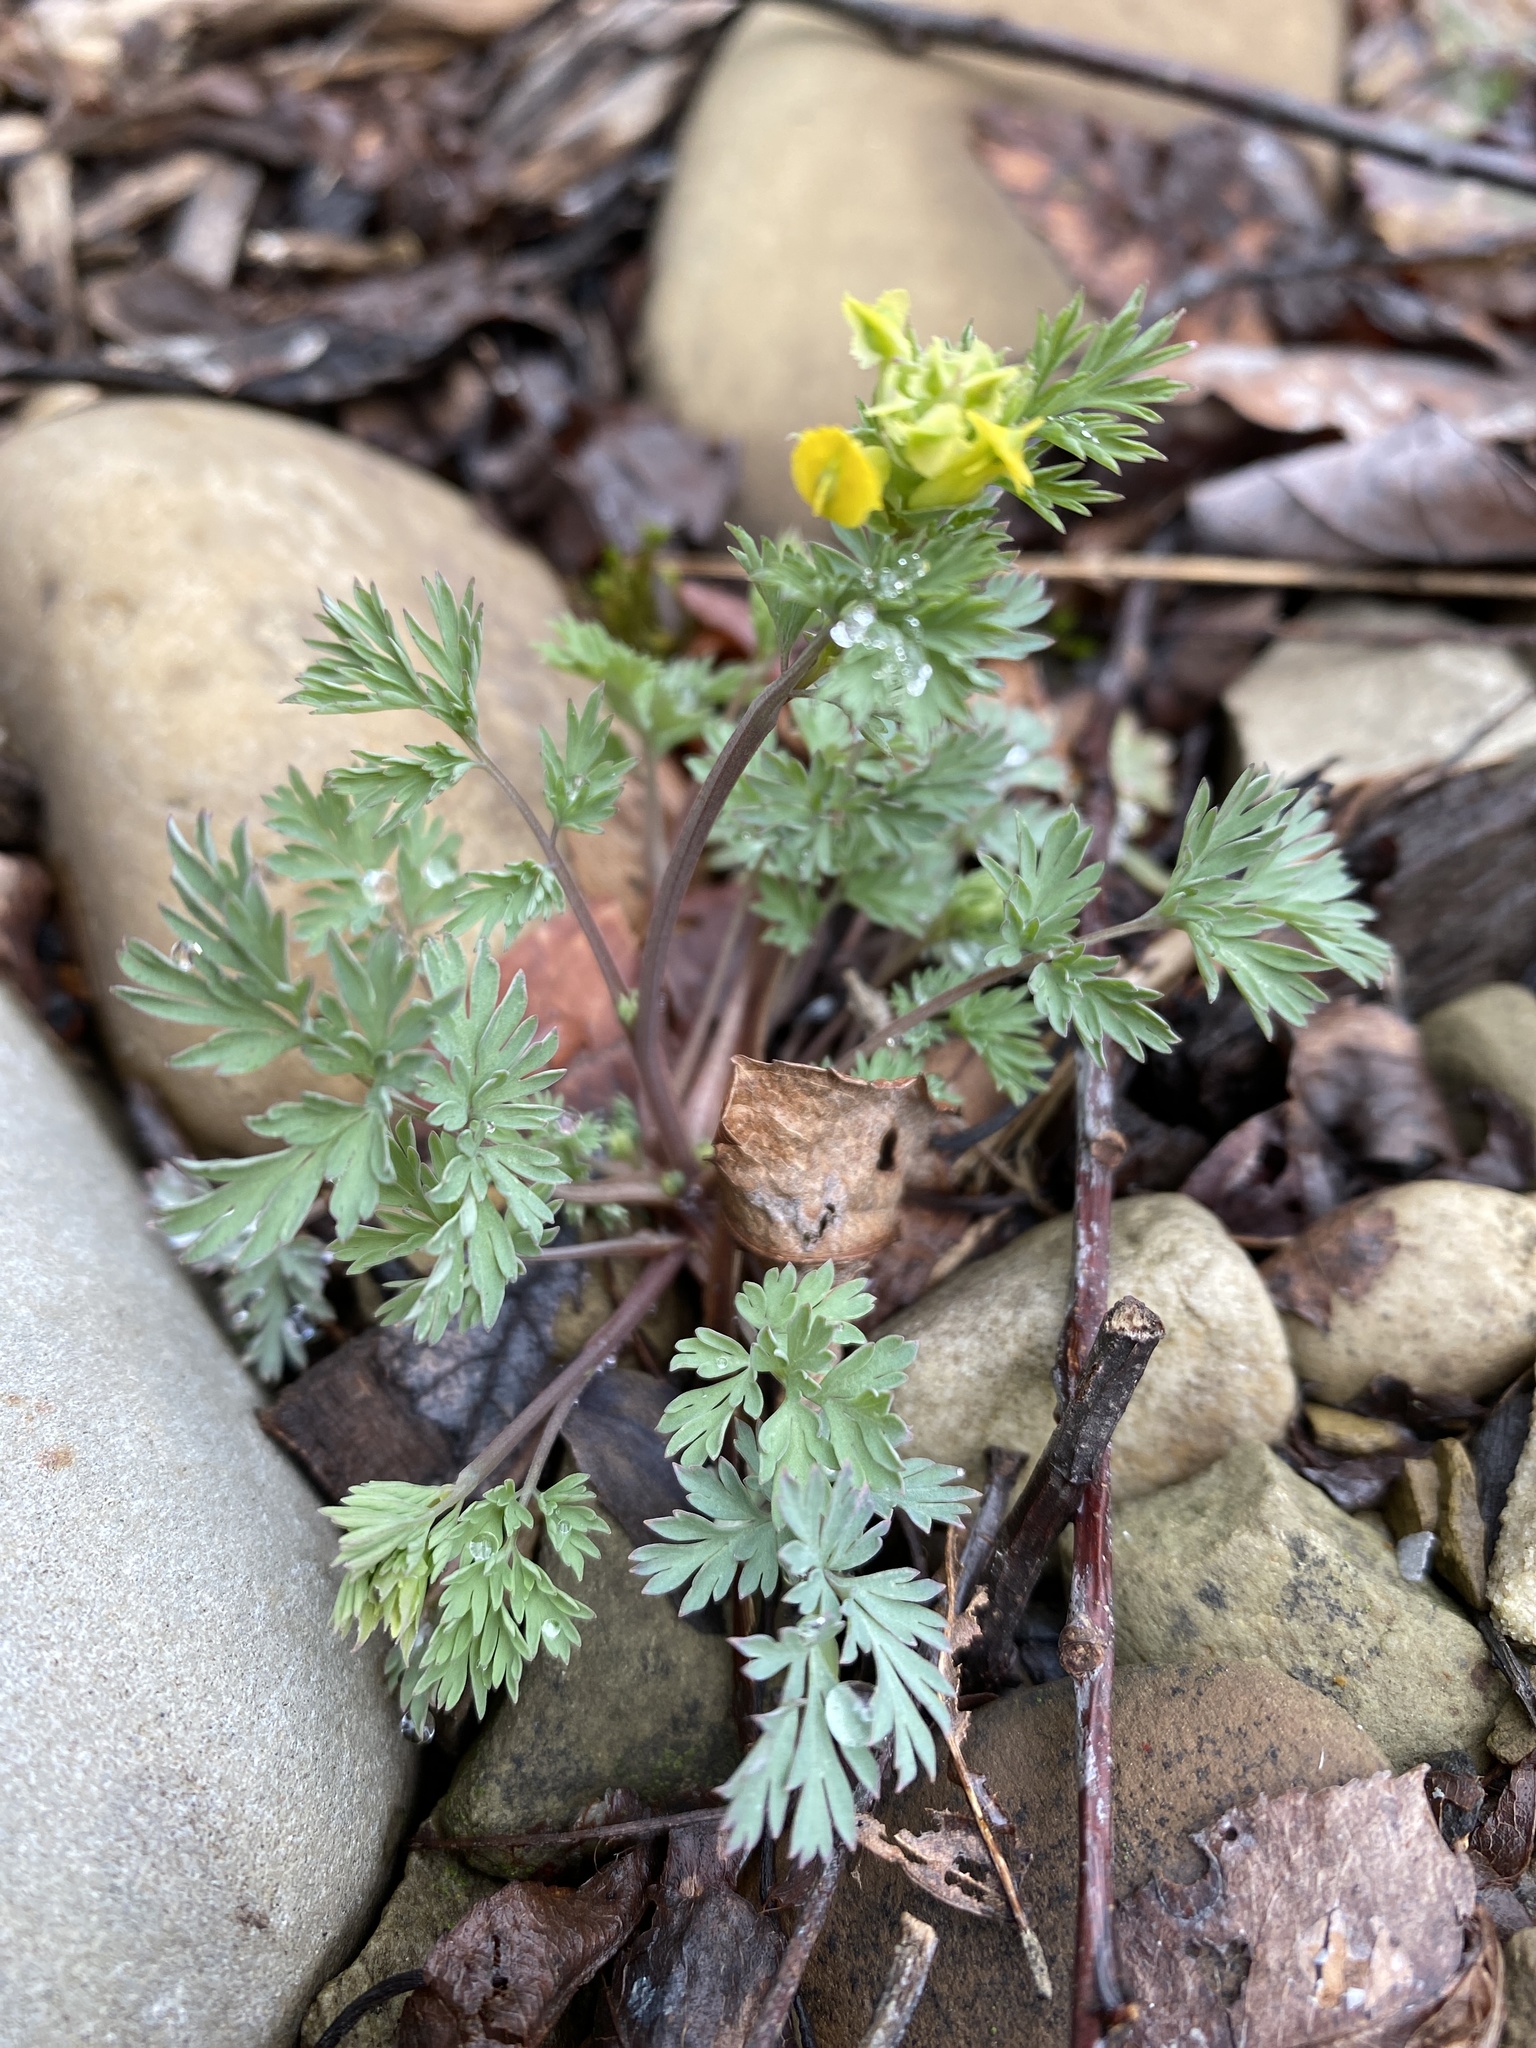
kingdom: Plantae
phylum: Tracheophyta
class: Magnoliopsida
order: Ranunculales
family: Papaveraceae
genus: Corydalis
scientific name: Corydalis flavula
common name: Yellow corydalis
